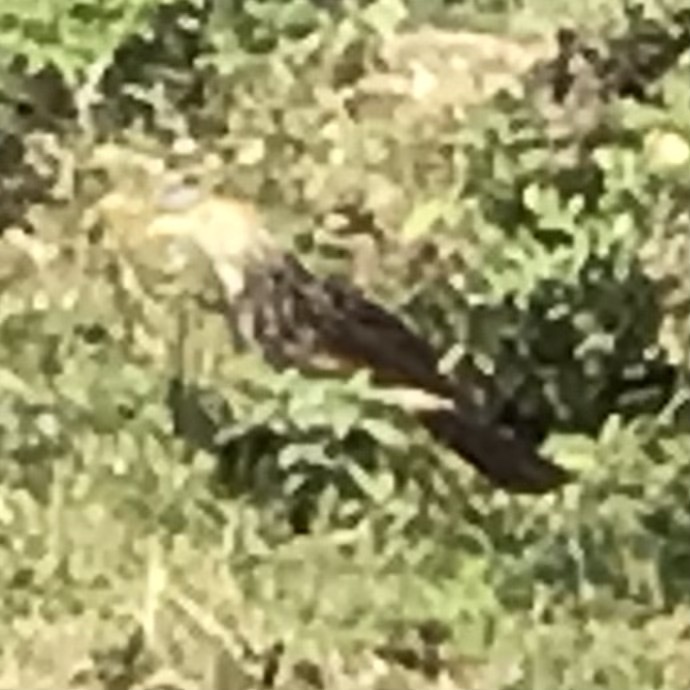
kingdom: Animalia
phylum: Chordata
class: Aves
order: Cuculiformes
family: Cuculidae
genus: Guira
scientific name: Guira guira
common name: Guira cuckoo
